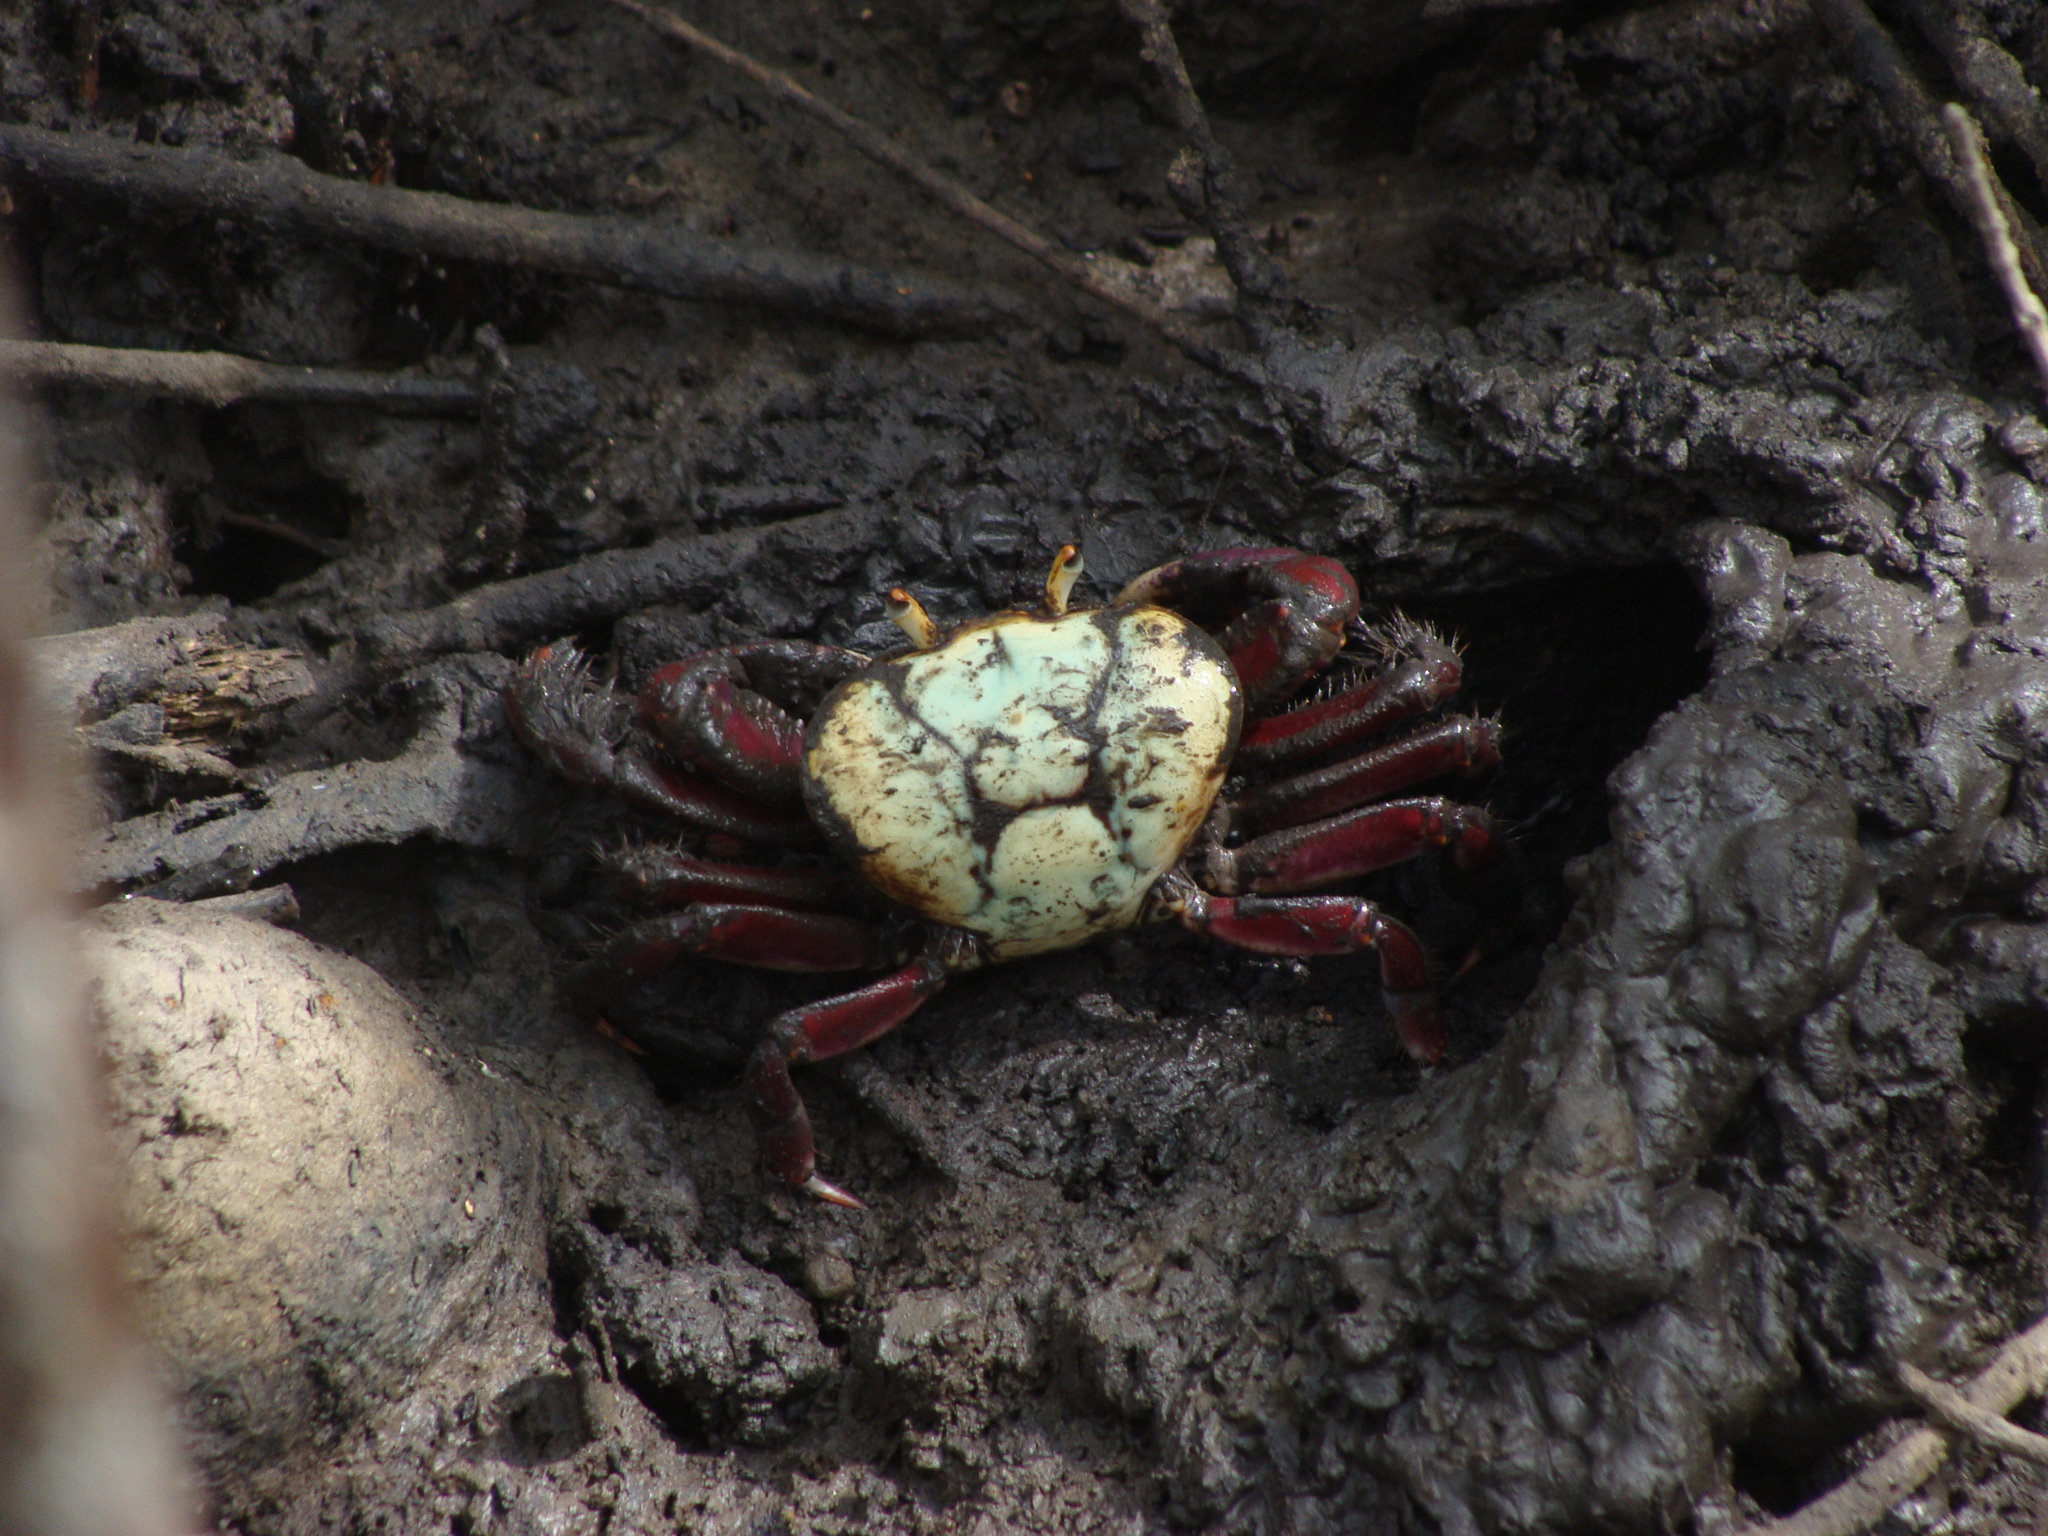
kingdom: Animalia
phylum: Arthropoda
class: Malacostraca
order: Decapoda
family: Ocypodidae
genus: Ucides
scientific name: Ucides cordatus
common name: Swamp ghost crab
